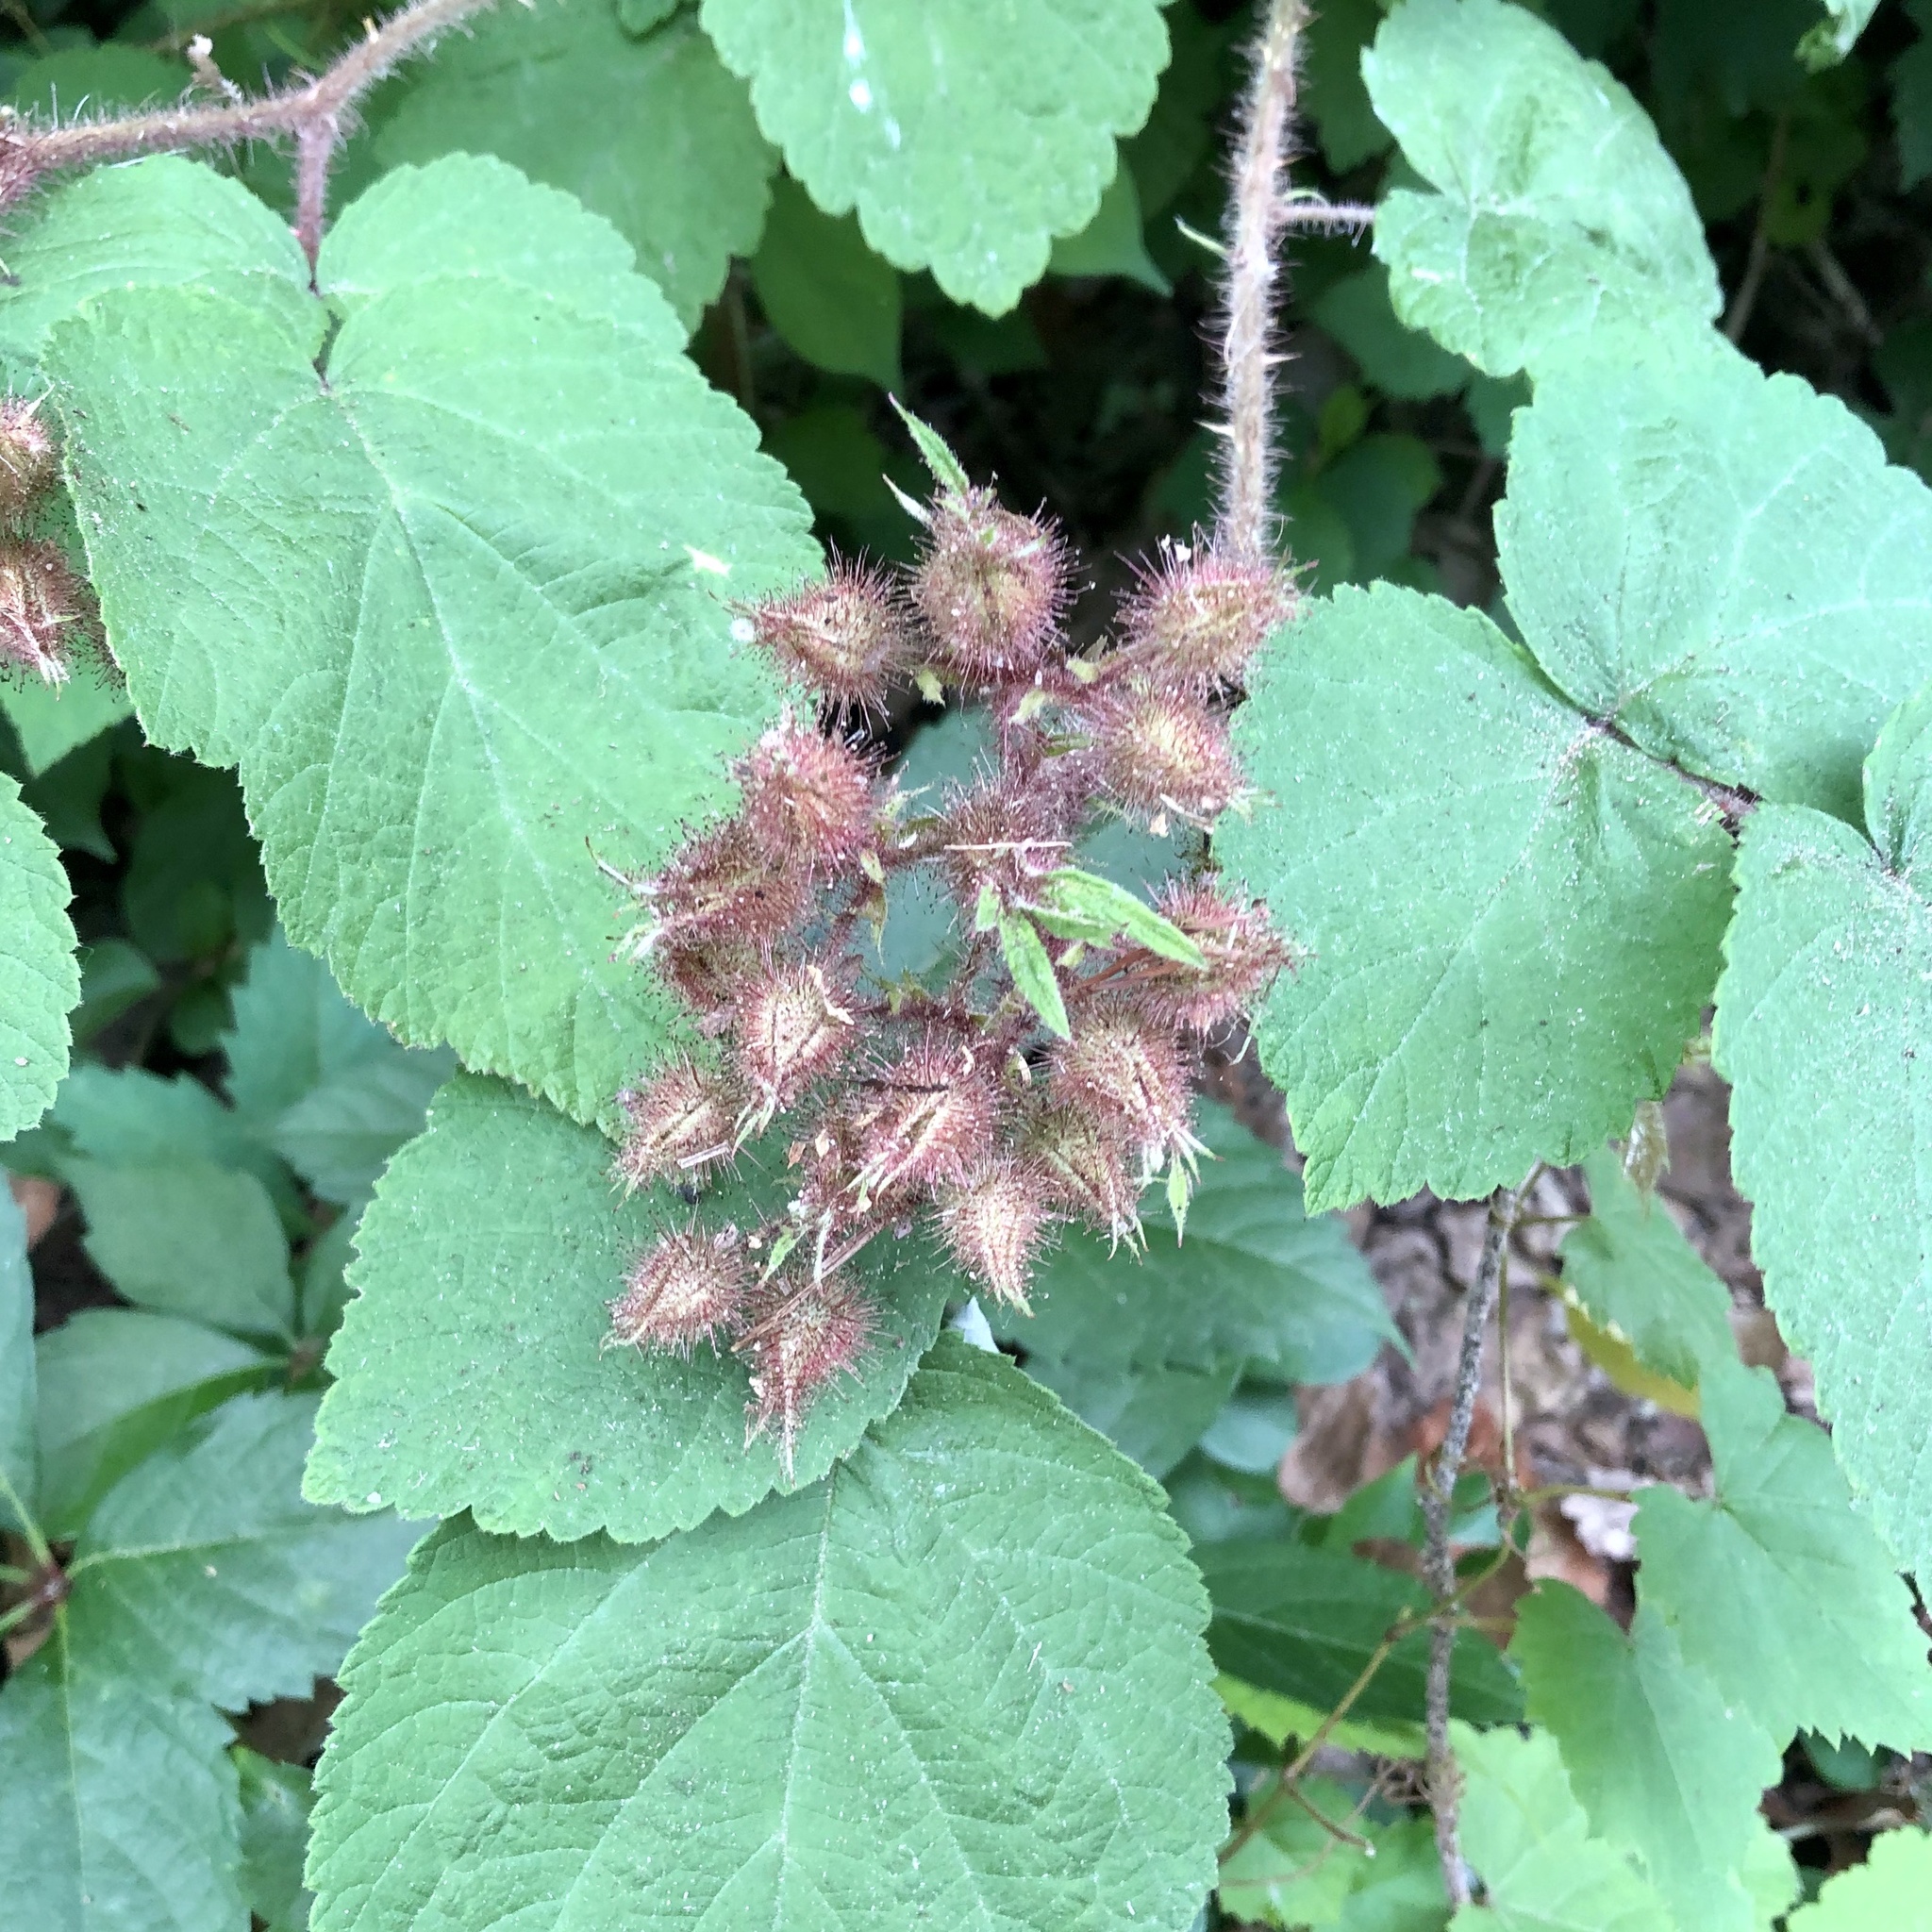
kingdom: Plantae
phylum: Tracheophyta
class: Magnoliopsida
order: Rosales
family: Rosaceae
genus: Rubus
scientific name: Rubus phoenicolasius
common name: Japanese wineberry
